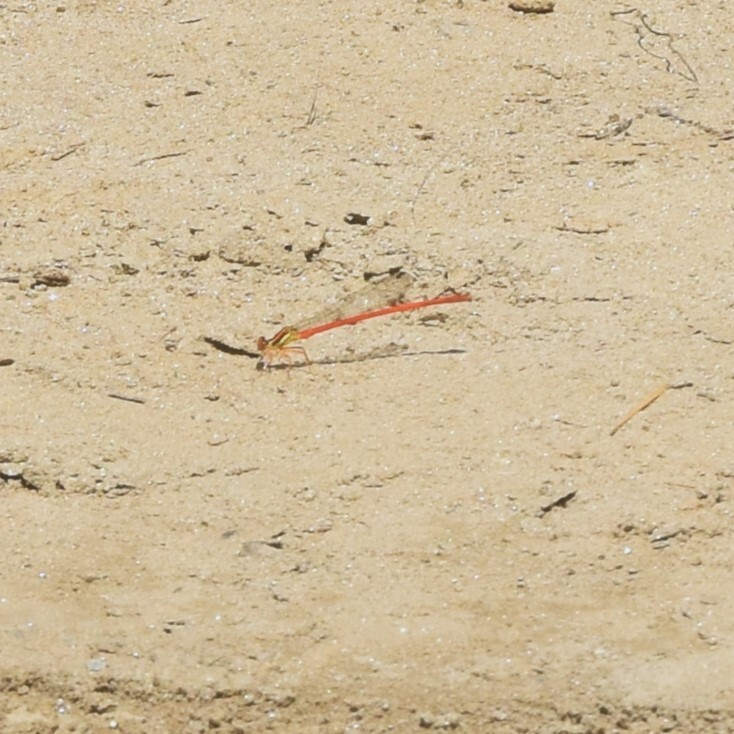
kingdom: Animalia
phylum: Arthropoda
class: Insecta
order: Odonata
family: Platycnemididae
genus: Calicnemia
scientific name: Calicnemia eximia
